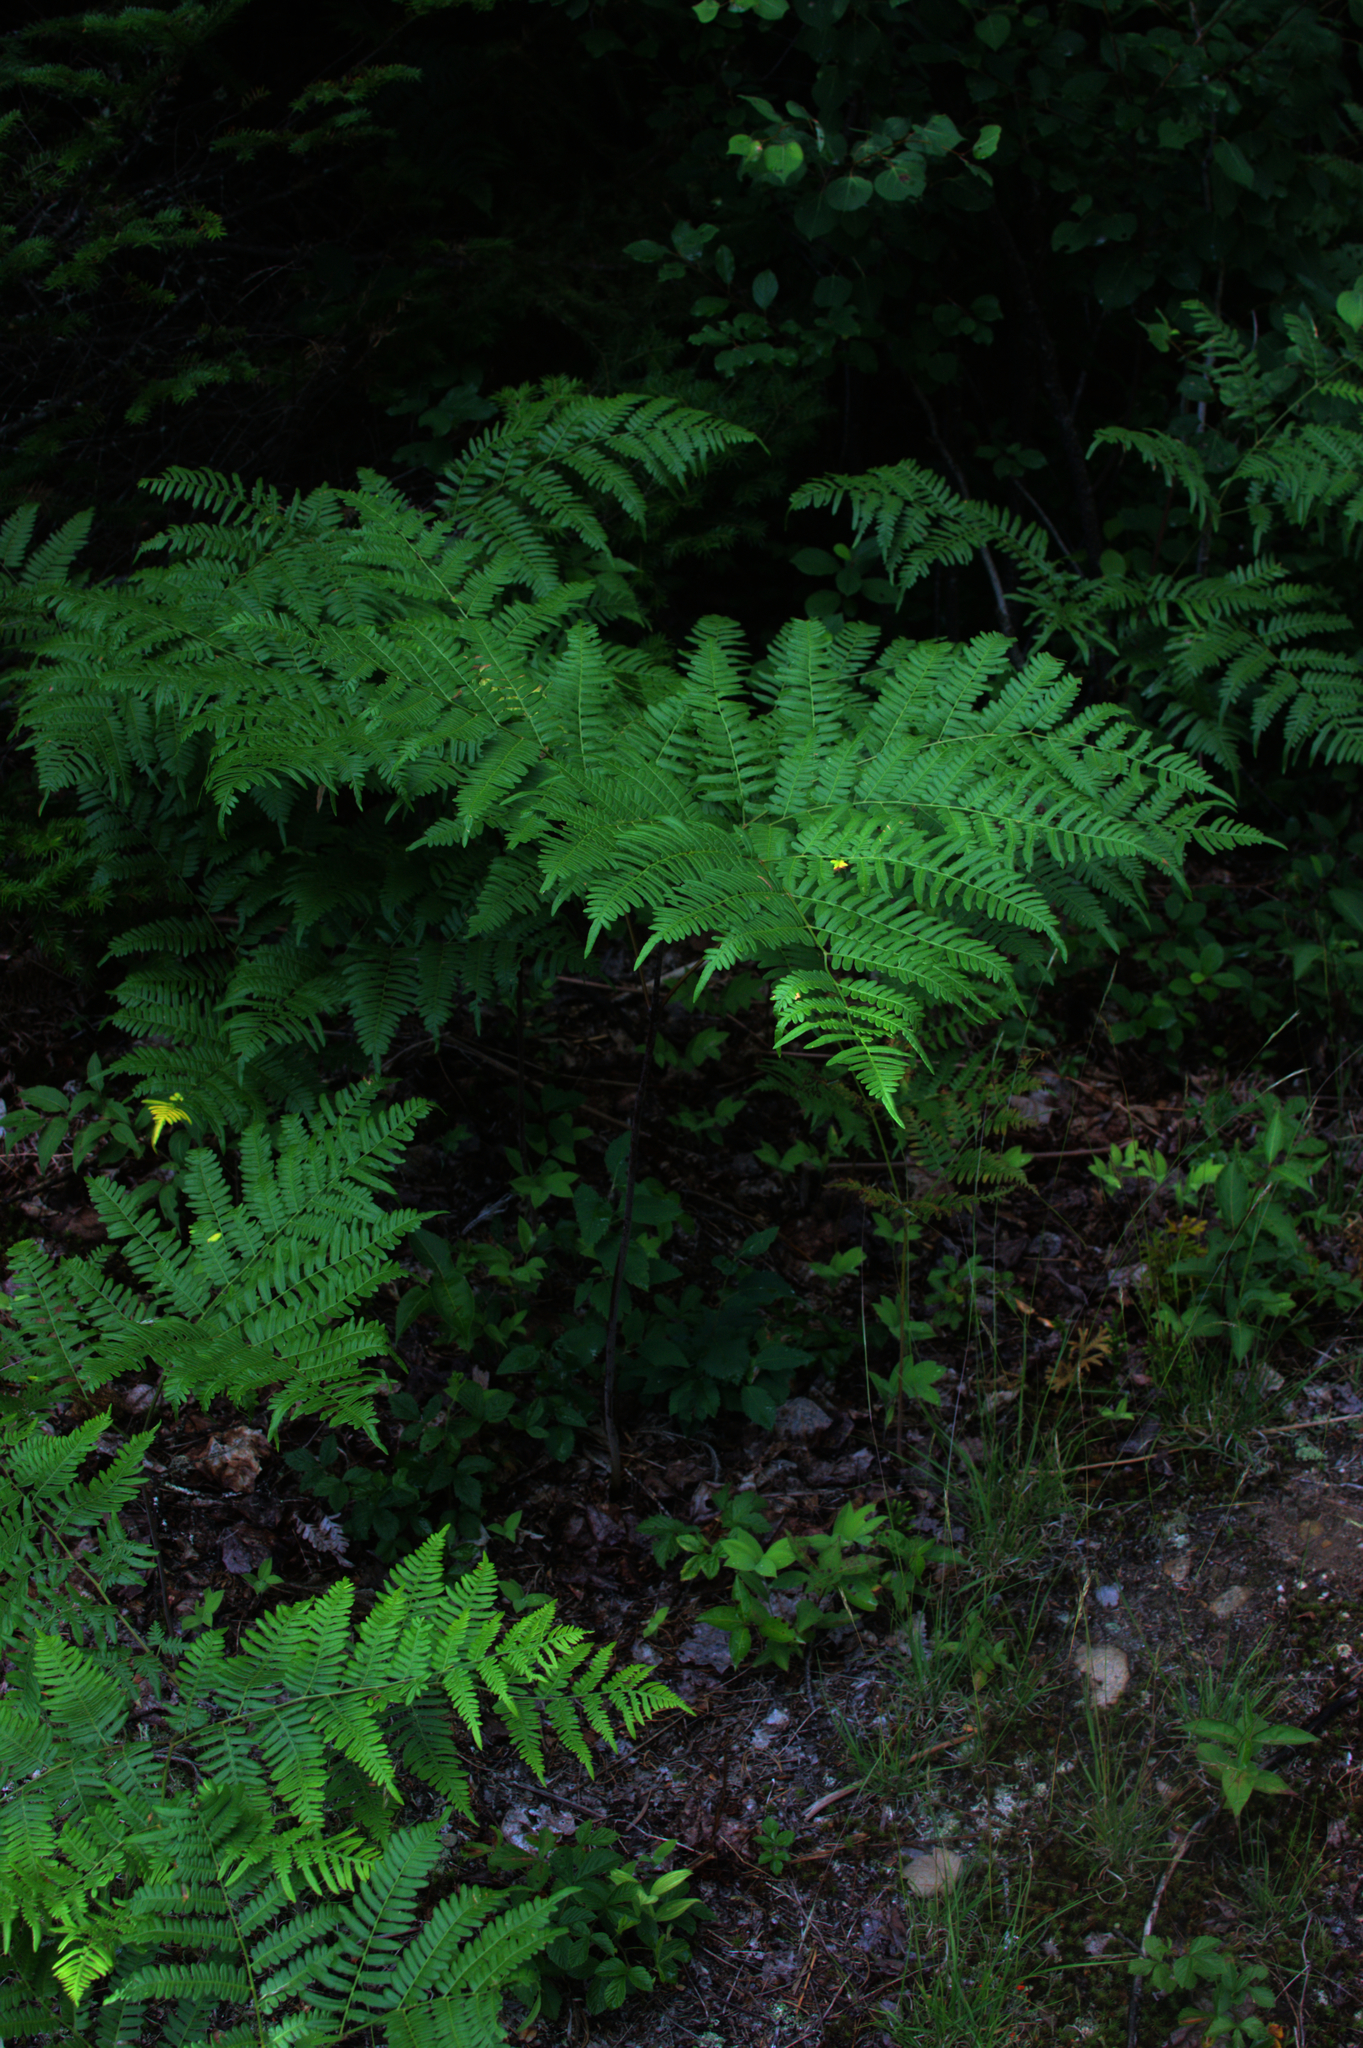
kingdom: Plantae
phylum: Tracheophyta
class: Polypodiopsida
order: Polypodiales
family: Dennstaedtiaceae
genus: Pteridium
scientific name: Pteridium aquilinum
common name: Bracken
